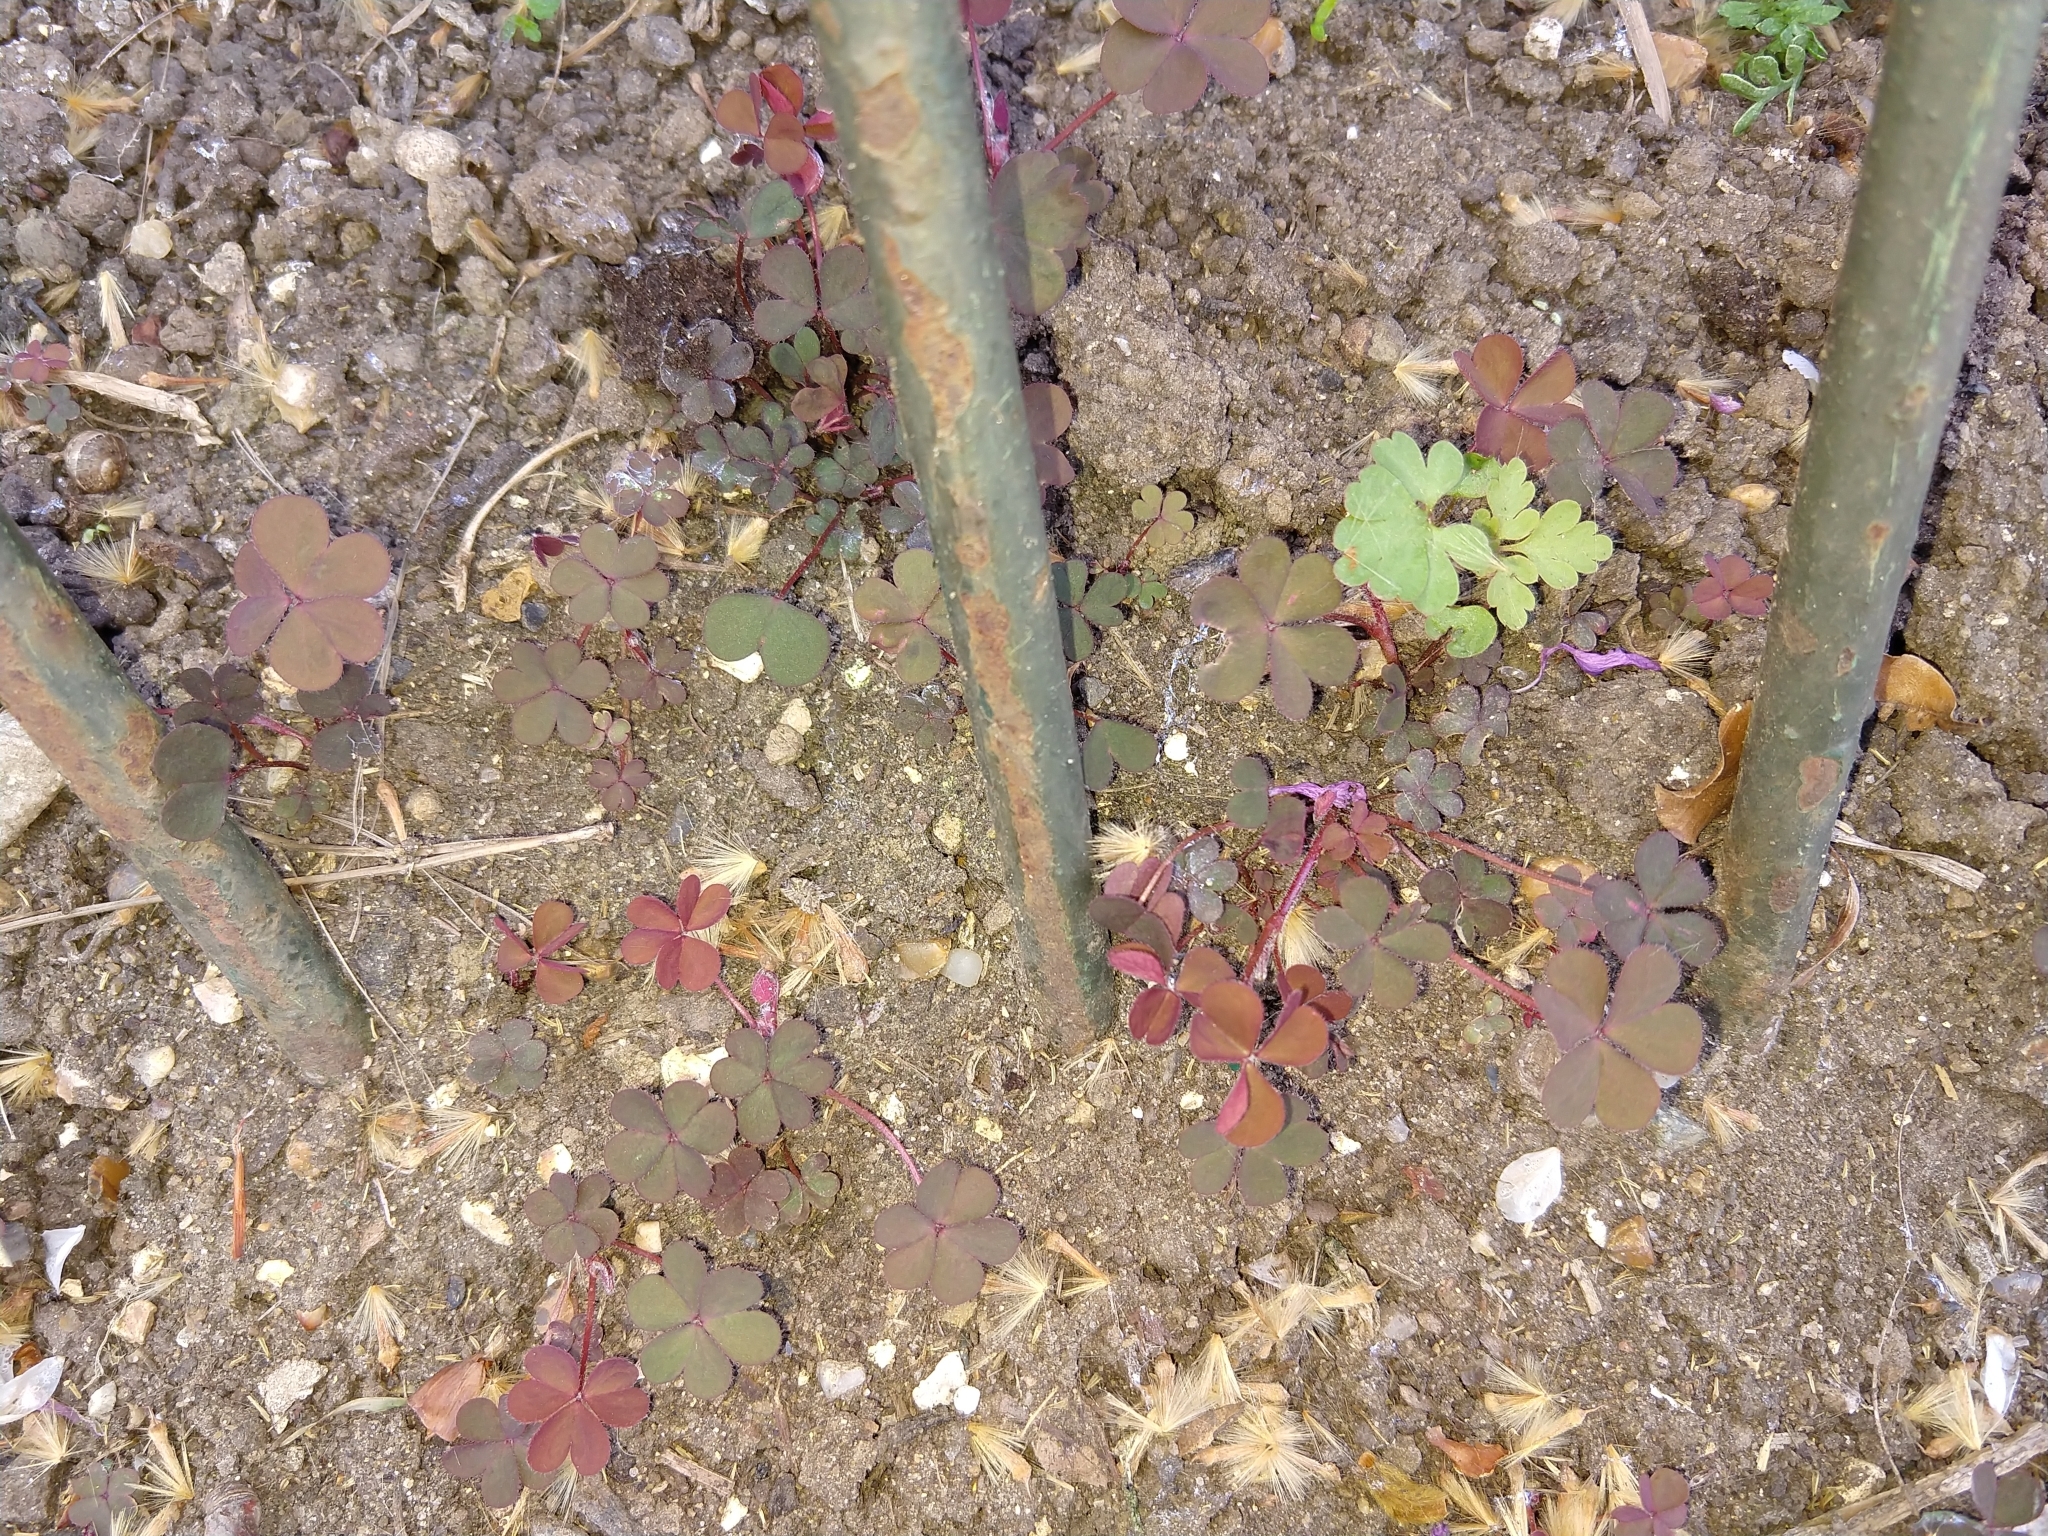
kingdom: Plantae
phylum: Tracheophyta
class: Magnoliopsida
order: Oxalidales
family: Oxalidaceae
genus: Oxalis
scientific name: Oxalis corniculata
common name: Procumbent yellow-sorrel
